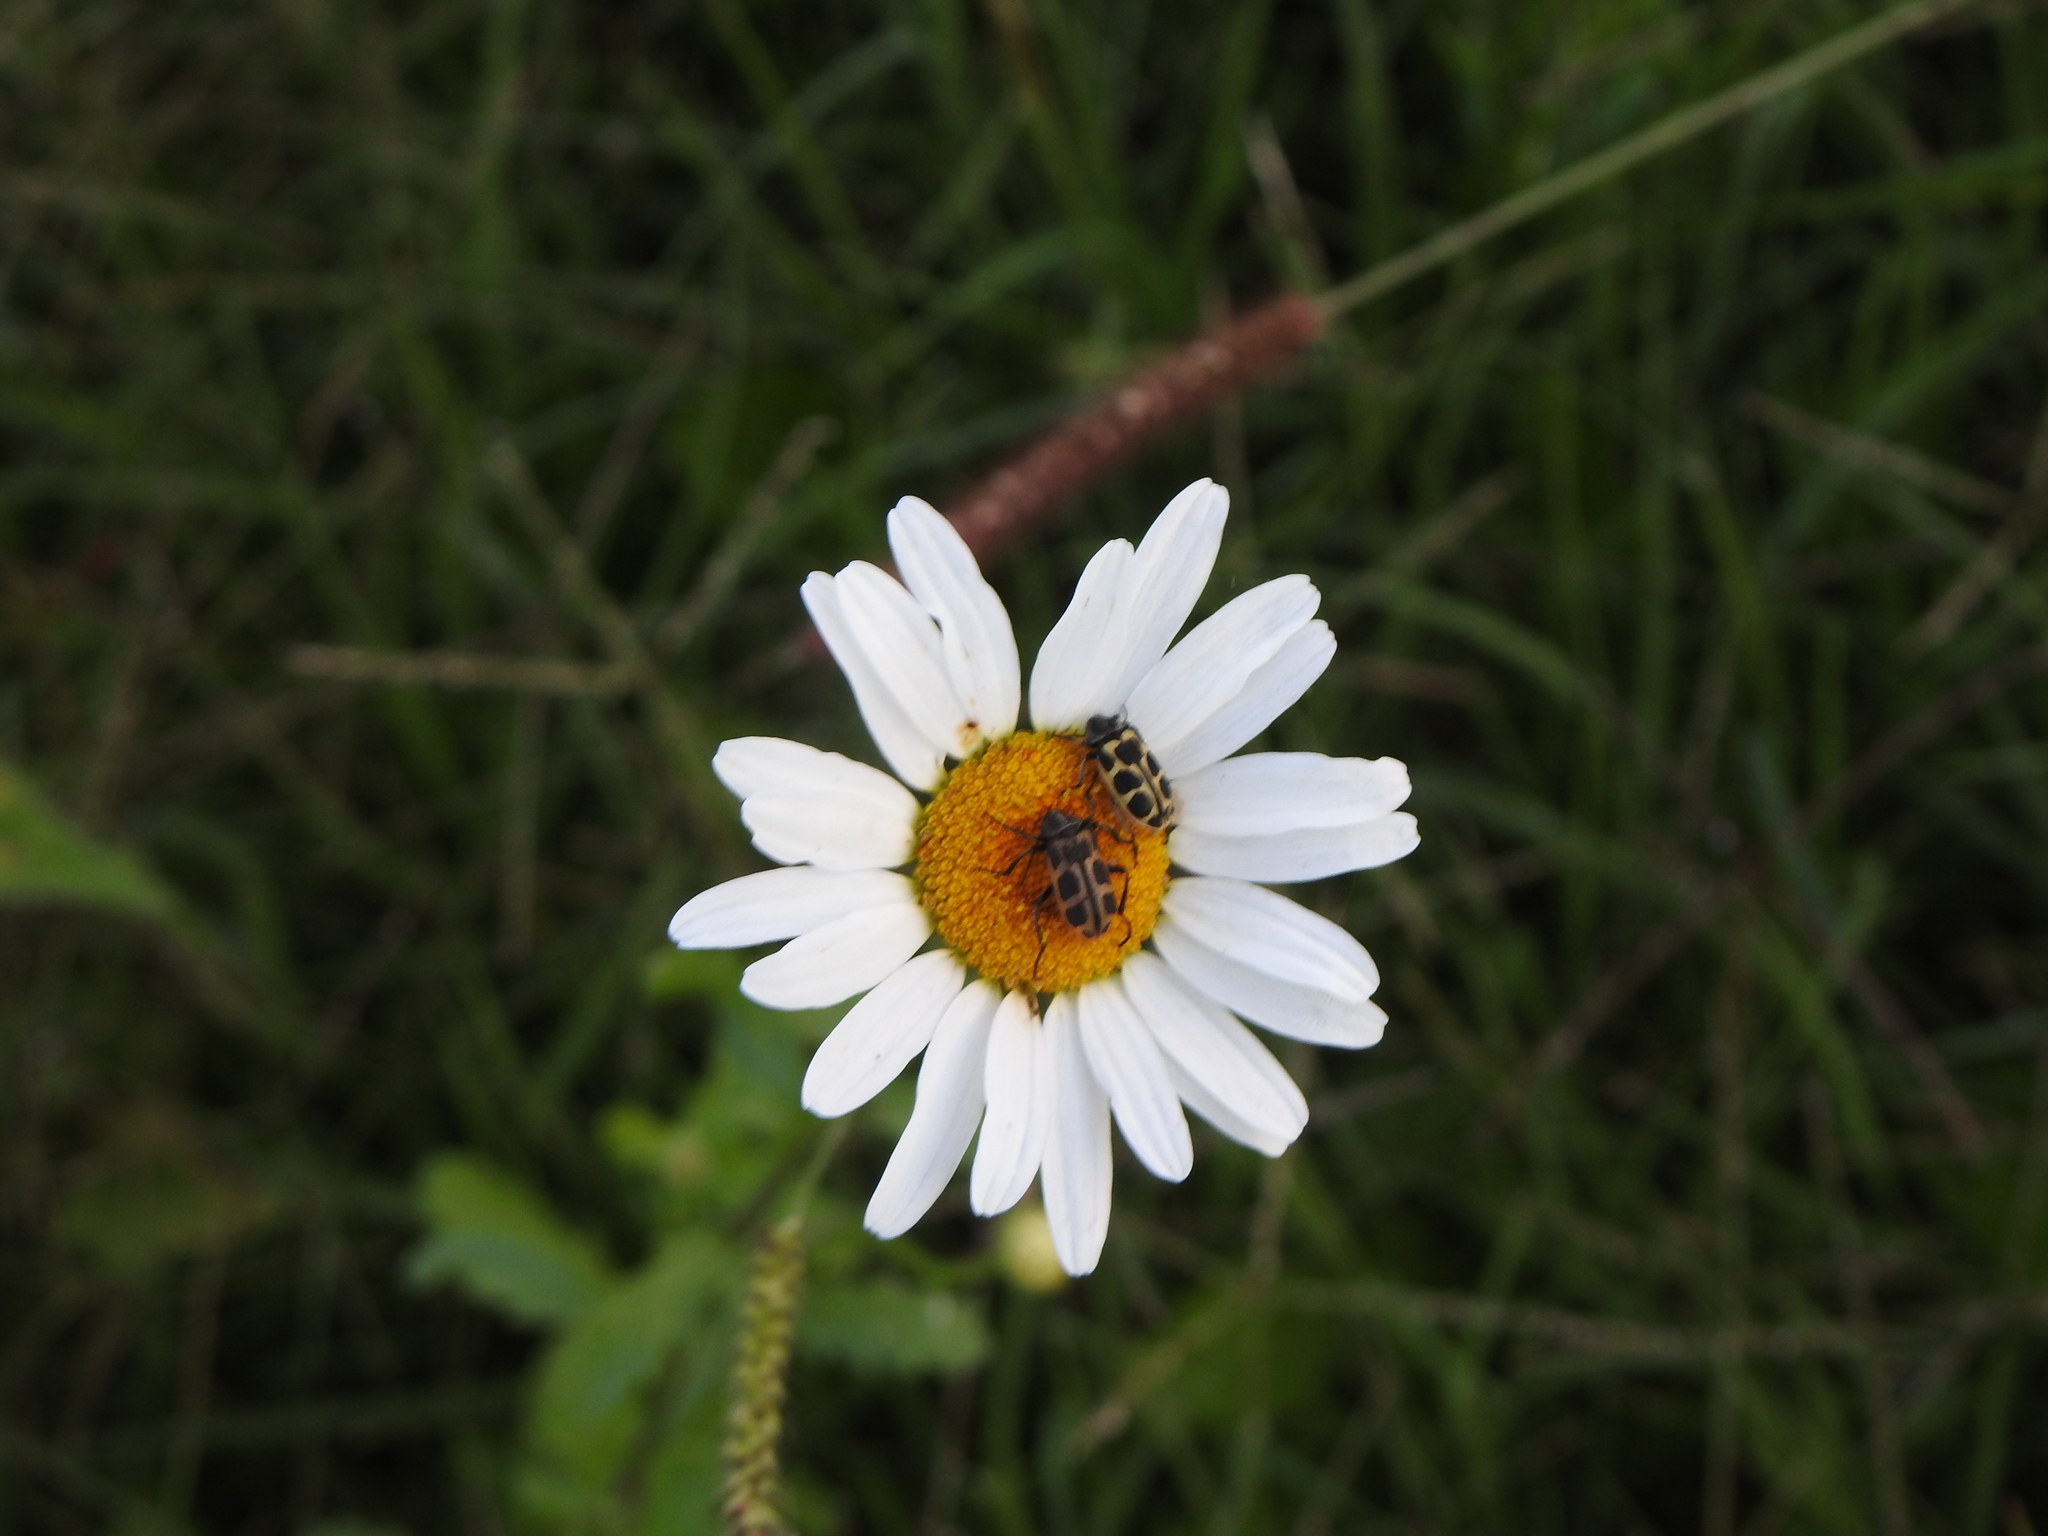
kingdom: Animalia
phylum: Arthropoda
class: Insecta
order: Coleoptera
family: Melyridae
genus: Astylus
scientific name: Astylus atromaculatus
